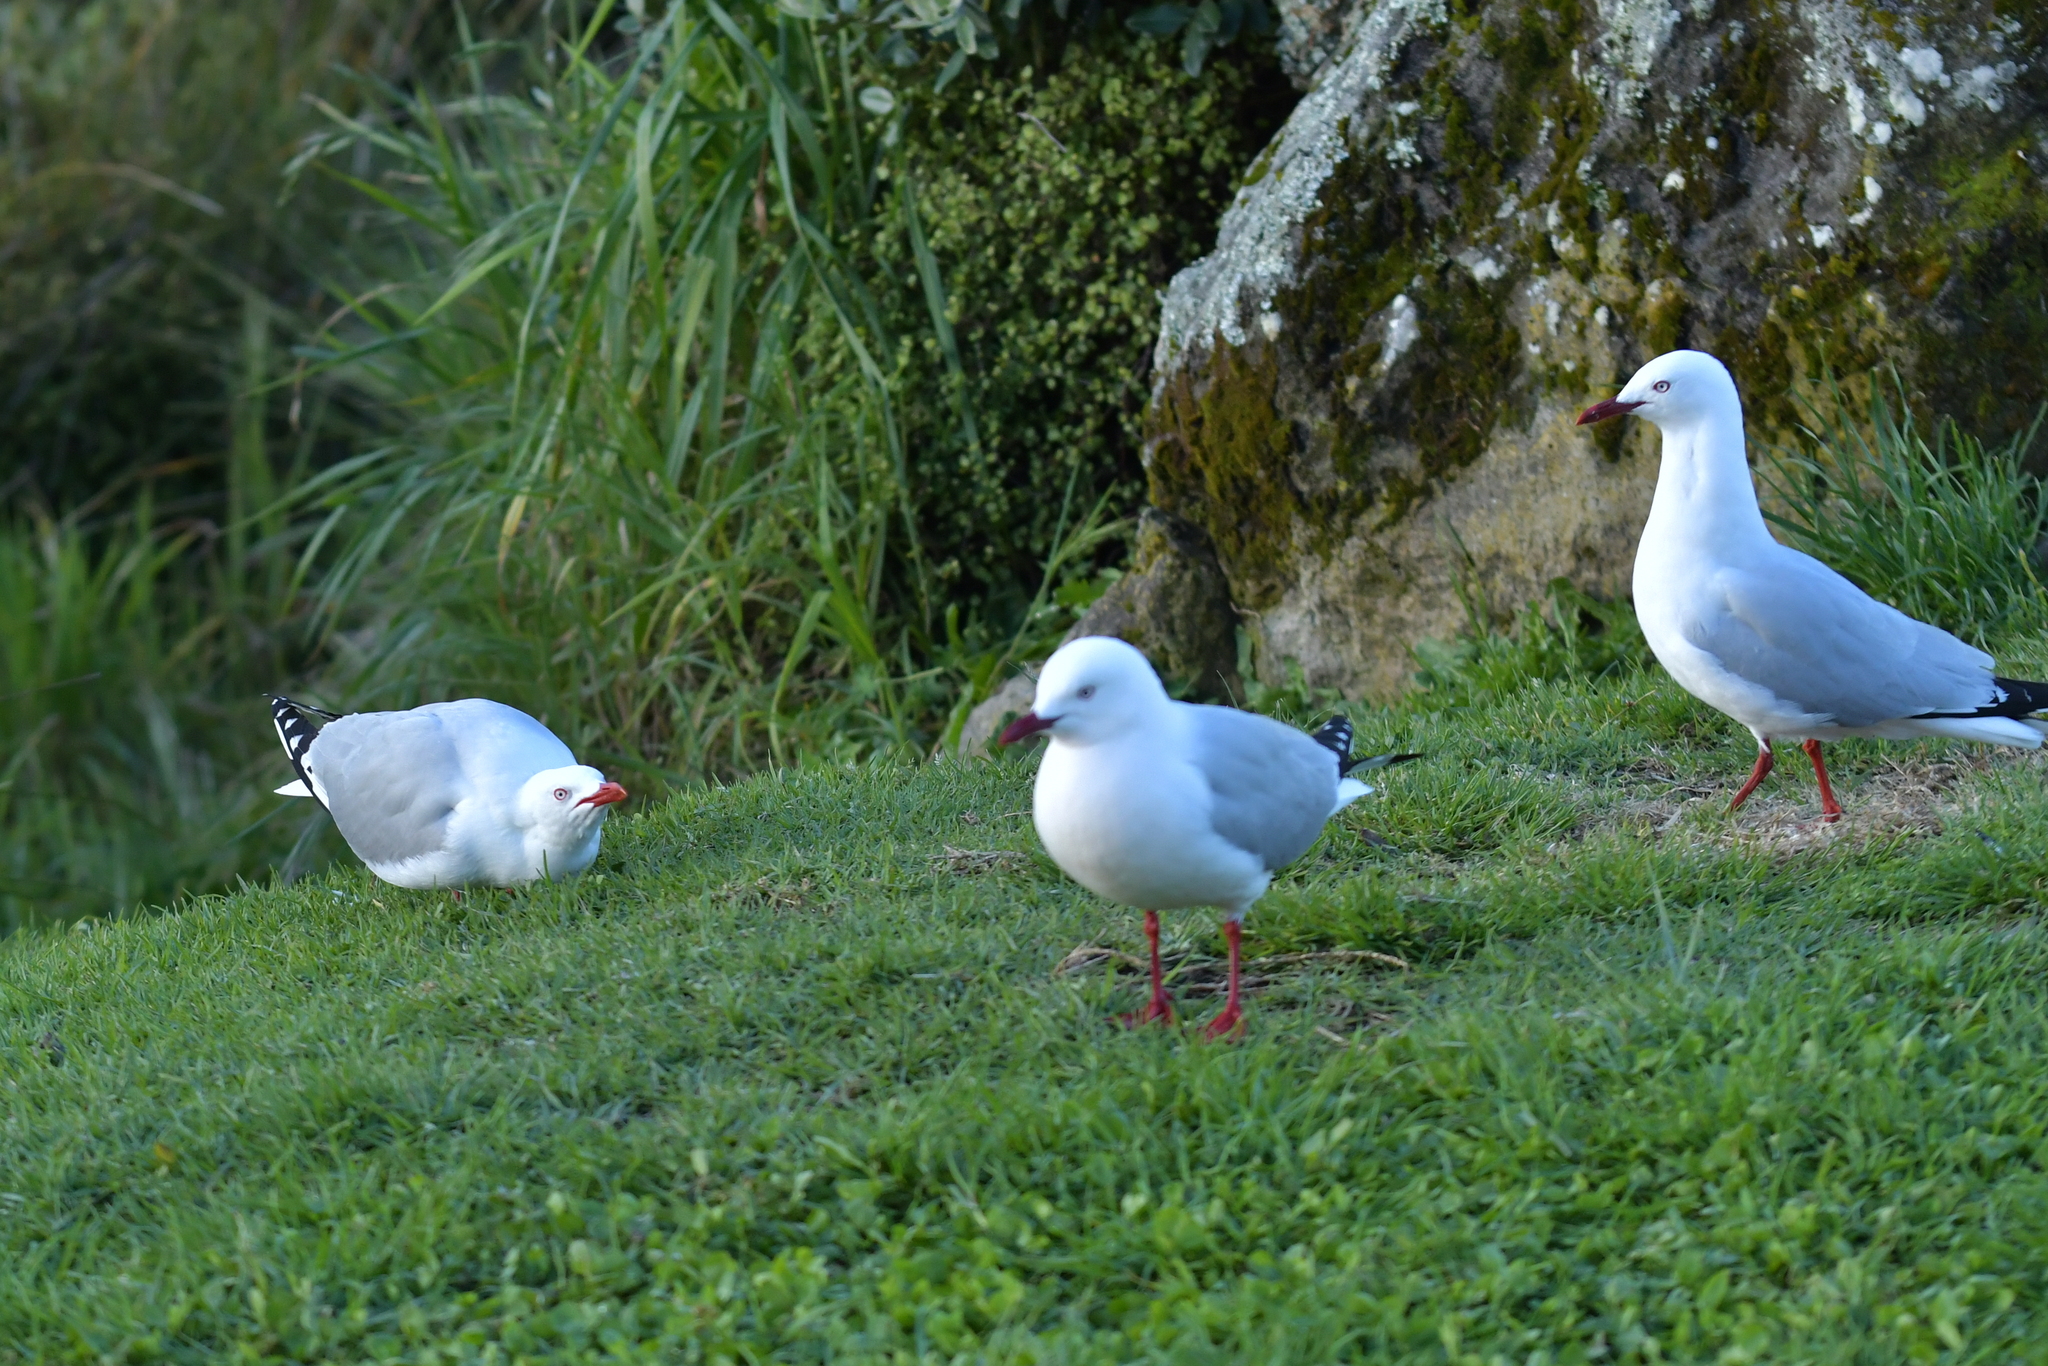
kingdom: Animalia
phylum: Chordata
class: Aves
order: Charadriiformes
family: Laridae
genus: Chroicocephalus
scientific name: Chroicocephalus novaehollandiae
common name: Silver gull
